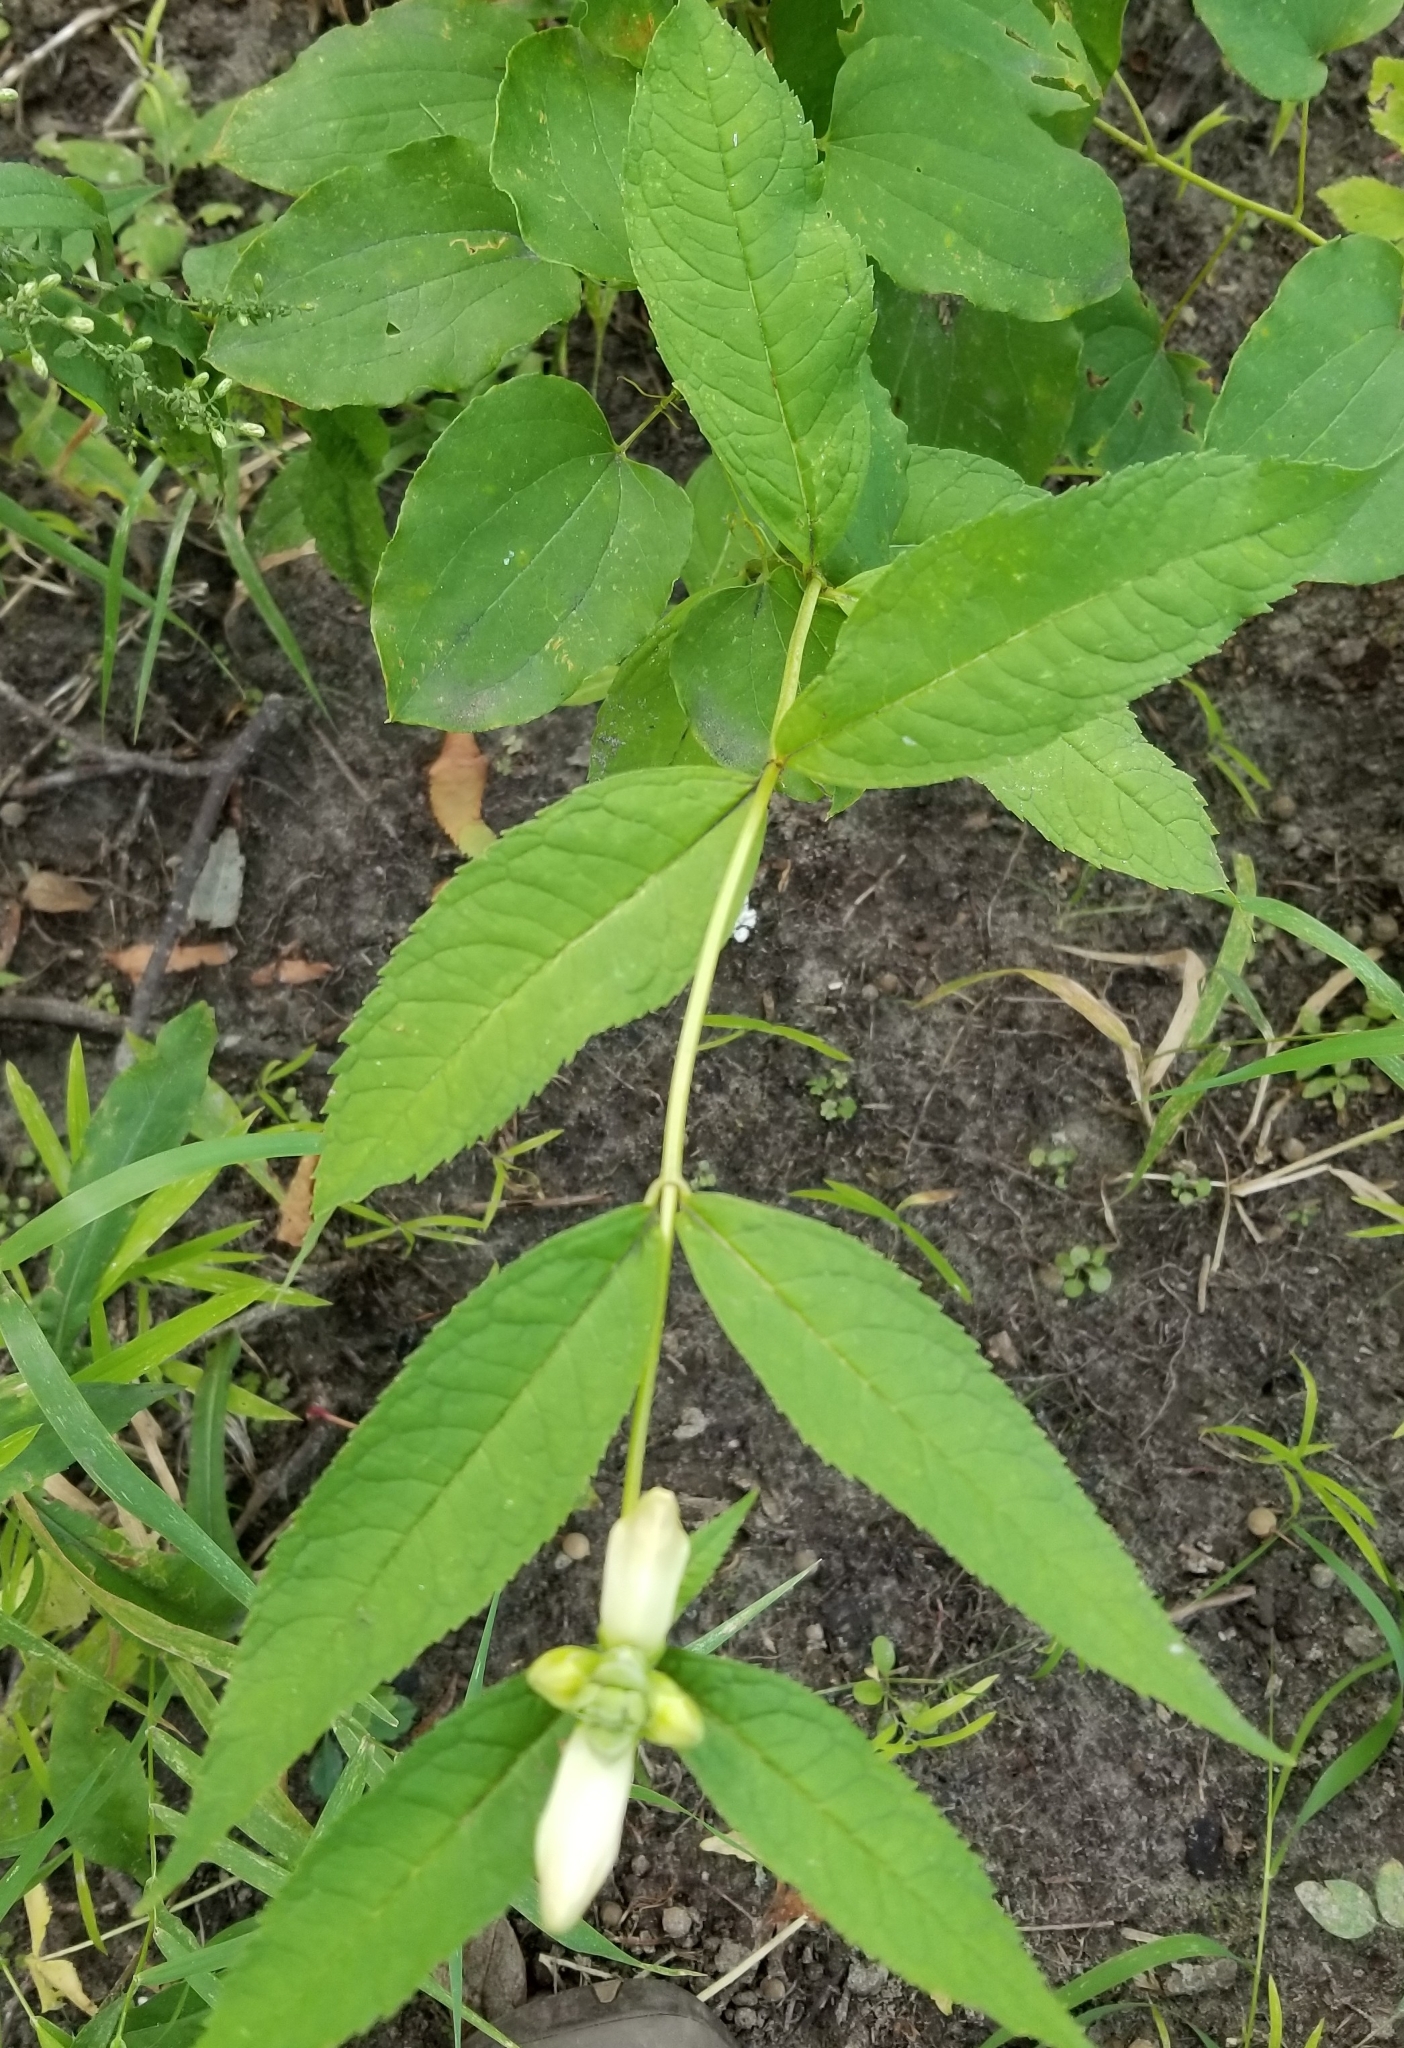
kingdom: Plantae
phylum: Tracheophyta
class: Magnoliopsida
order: Lamiales
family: Plantaginaceae
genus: Chelone
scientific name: Chelone glabra
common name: Snakehead
